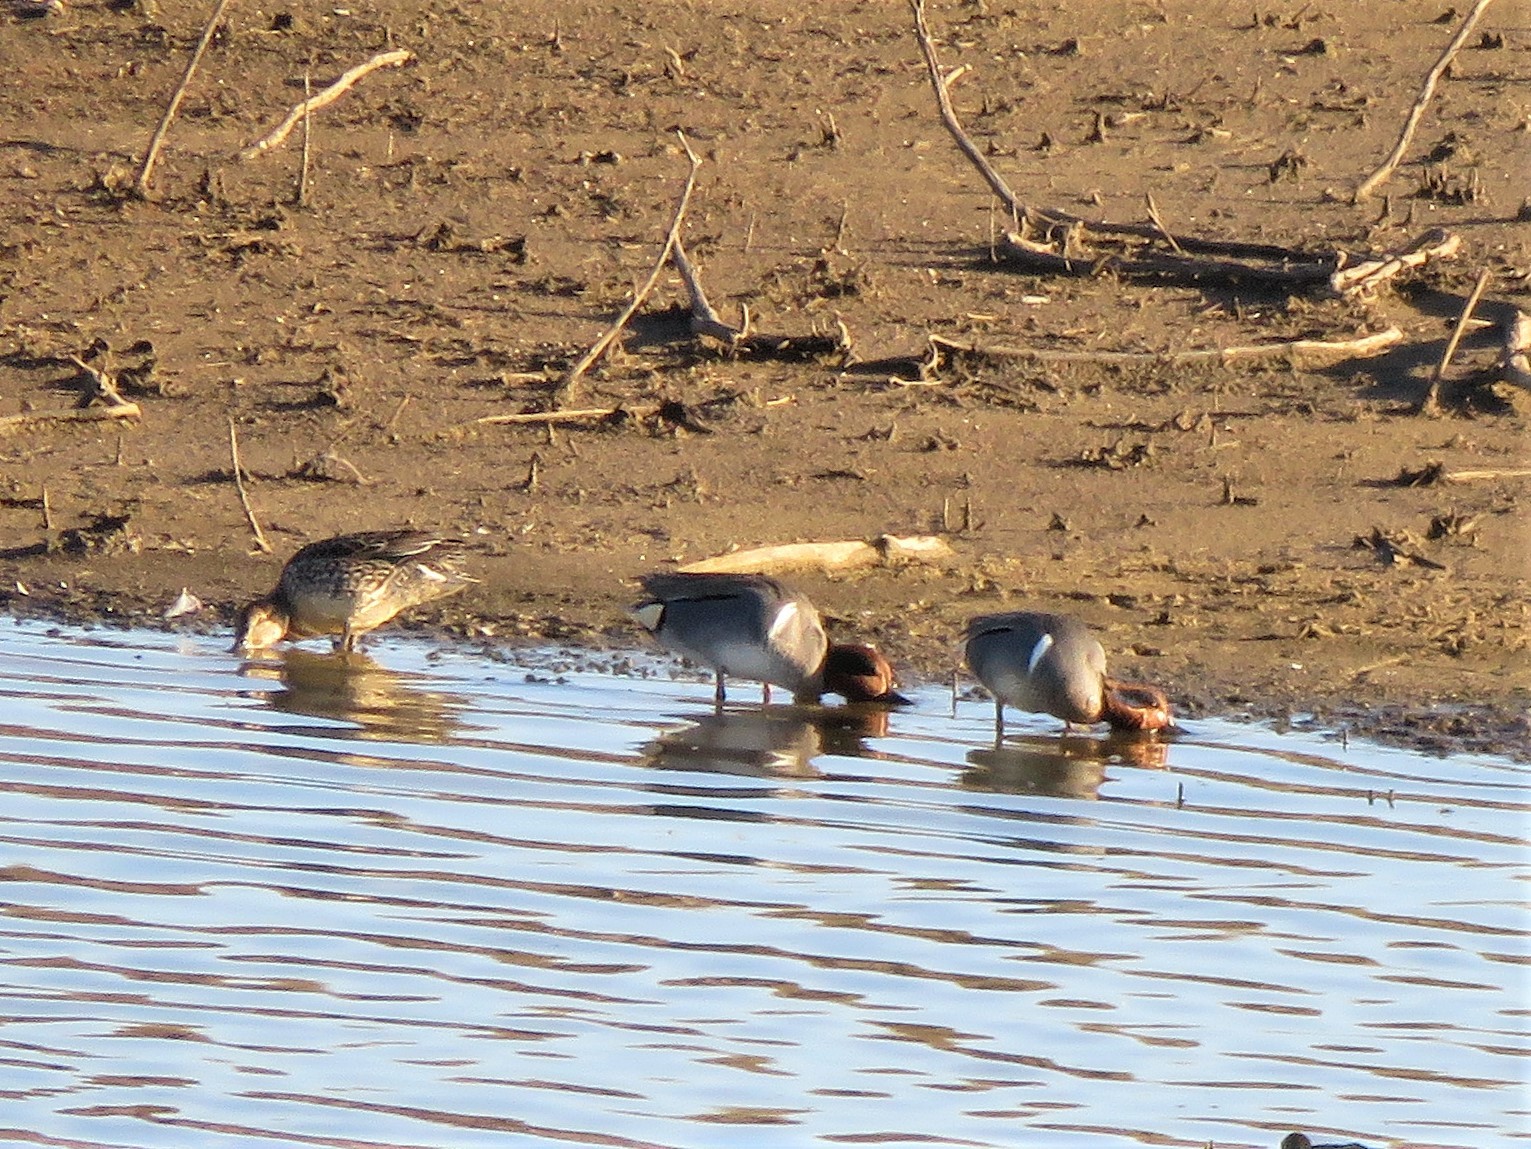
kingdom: Animalia
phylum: Chordata
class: Aves
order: Anseriformes
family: Anatidae
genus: Anas
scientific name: Anas crecca
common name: Eurasian teal
